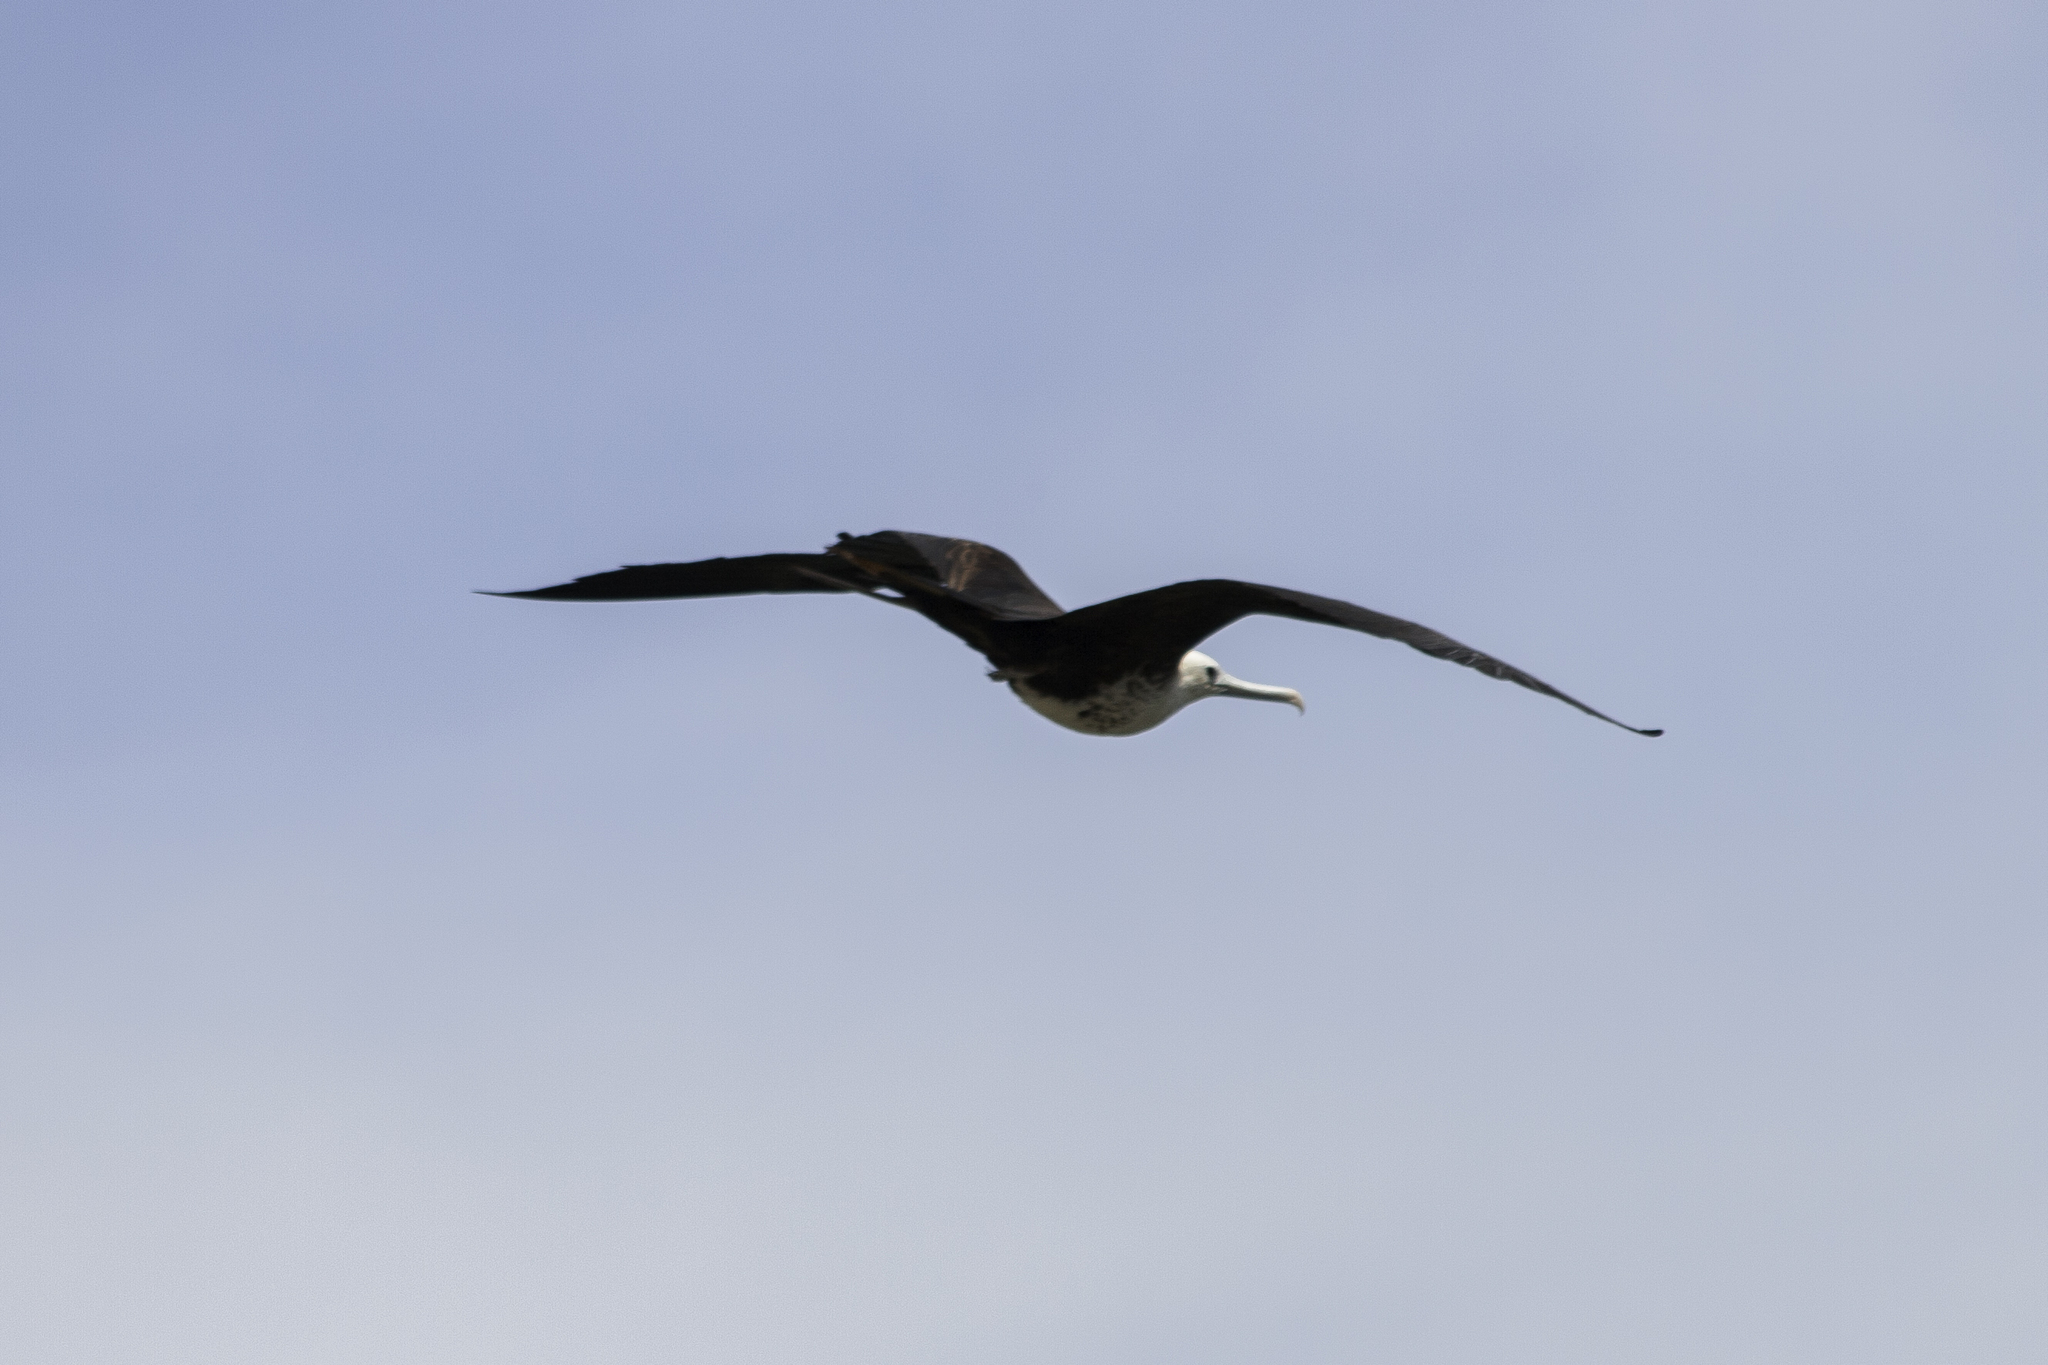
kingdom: Animalia
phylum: Chordata
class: Aves
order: Suliformes
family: Fregatidae
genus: Fregata
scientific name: Fregata magnificens
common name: Magnificent frigatebird
